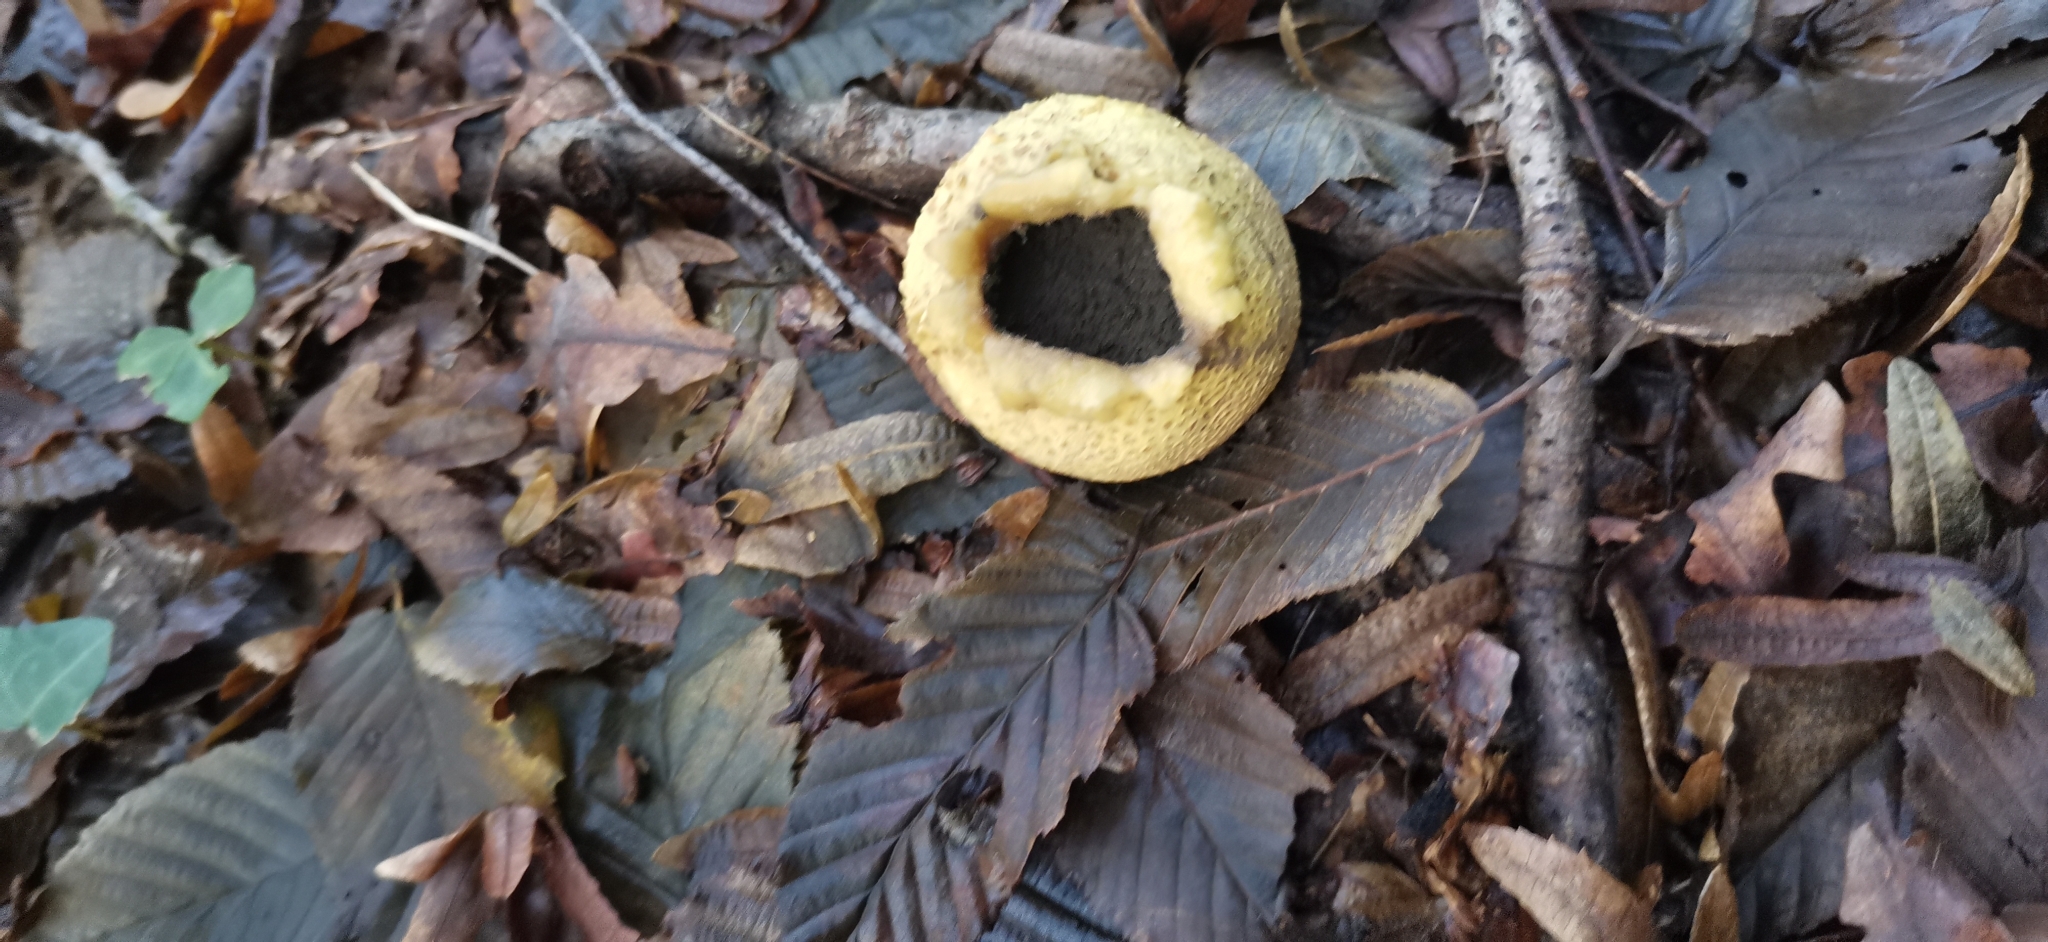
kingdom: Fungi
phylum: Basidiomycota
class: Agaricomycetes
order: Boletales
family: Sclerodermataceae
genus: Scleroderma
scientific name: Scleroderma citrinum
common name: Common earthball
